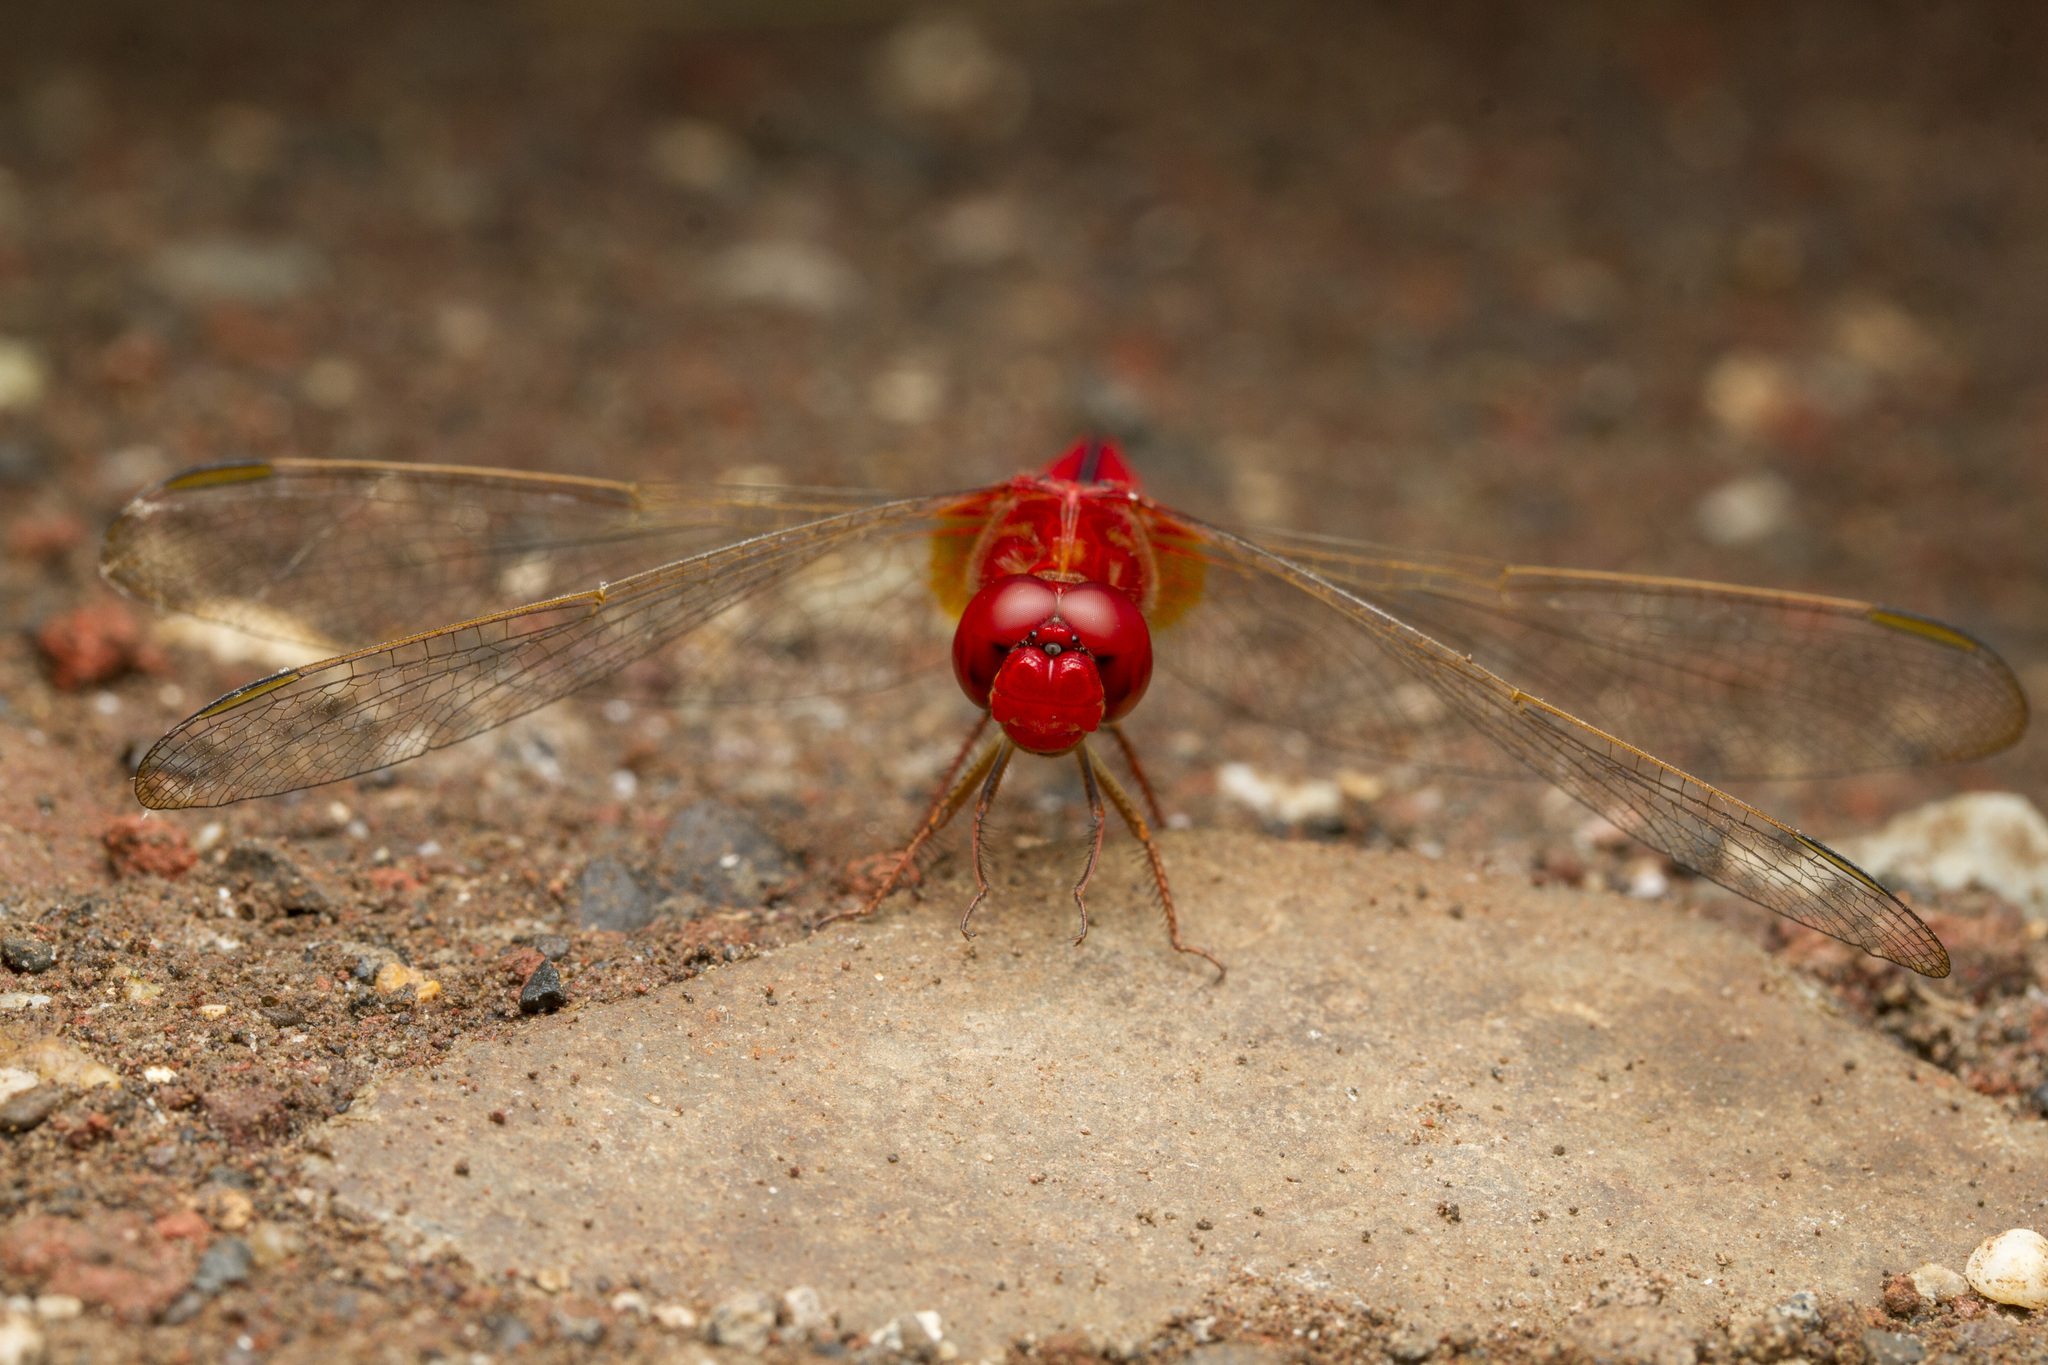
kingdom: Animalia
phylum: Arthropoda
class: Insecta
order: Odonata
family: Libellulidae
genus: Crocothemis
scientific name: Crocothemis servilia
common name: Scarlet skimmer
